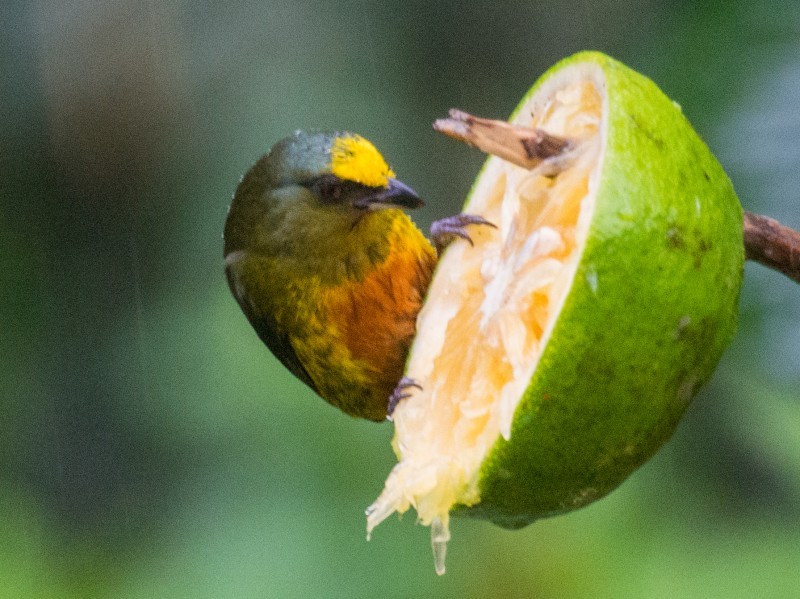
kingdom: Animalia
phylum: Chordata
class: Aves
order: Passeriformes
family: Fringillidae
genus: Euphonia
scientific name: Euphonia gouldi
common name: Olive-backed euphonia
